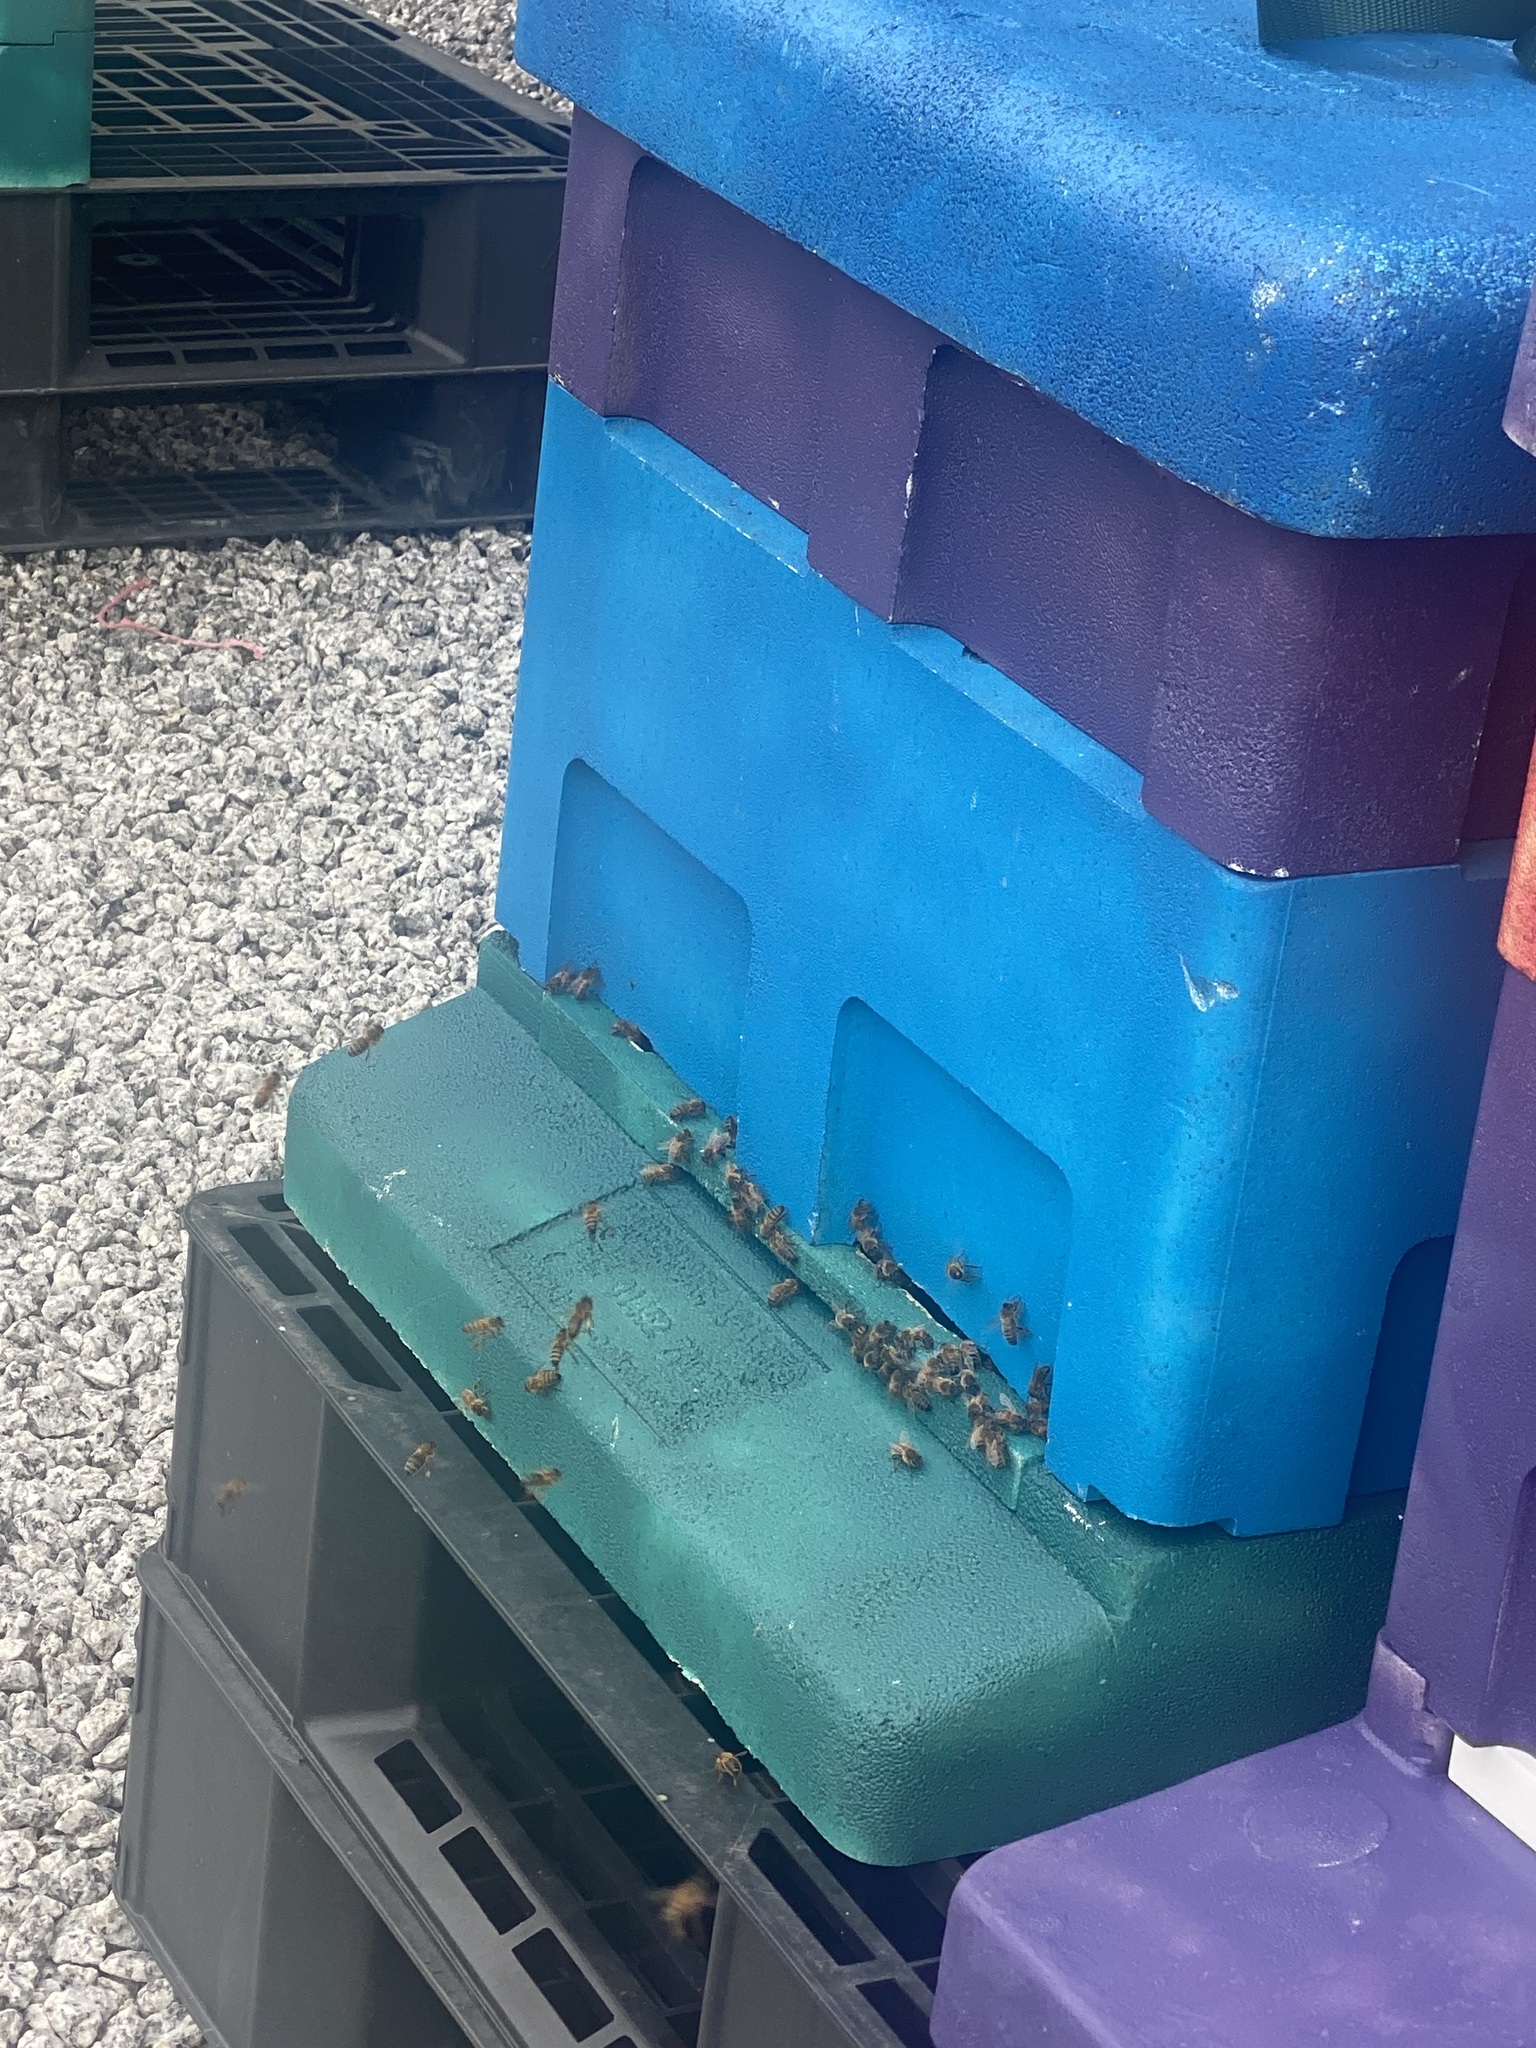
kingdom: Animalia
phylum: Arthropoda
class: Insecta
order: Hymenoptera
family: Apidae
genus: Apis
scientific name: Apis mellifera
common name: Honey bee
